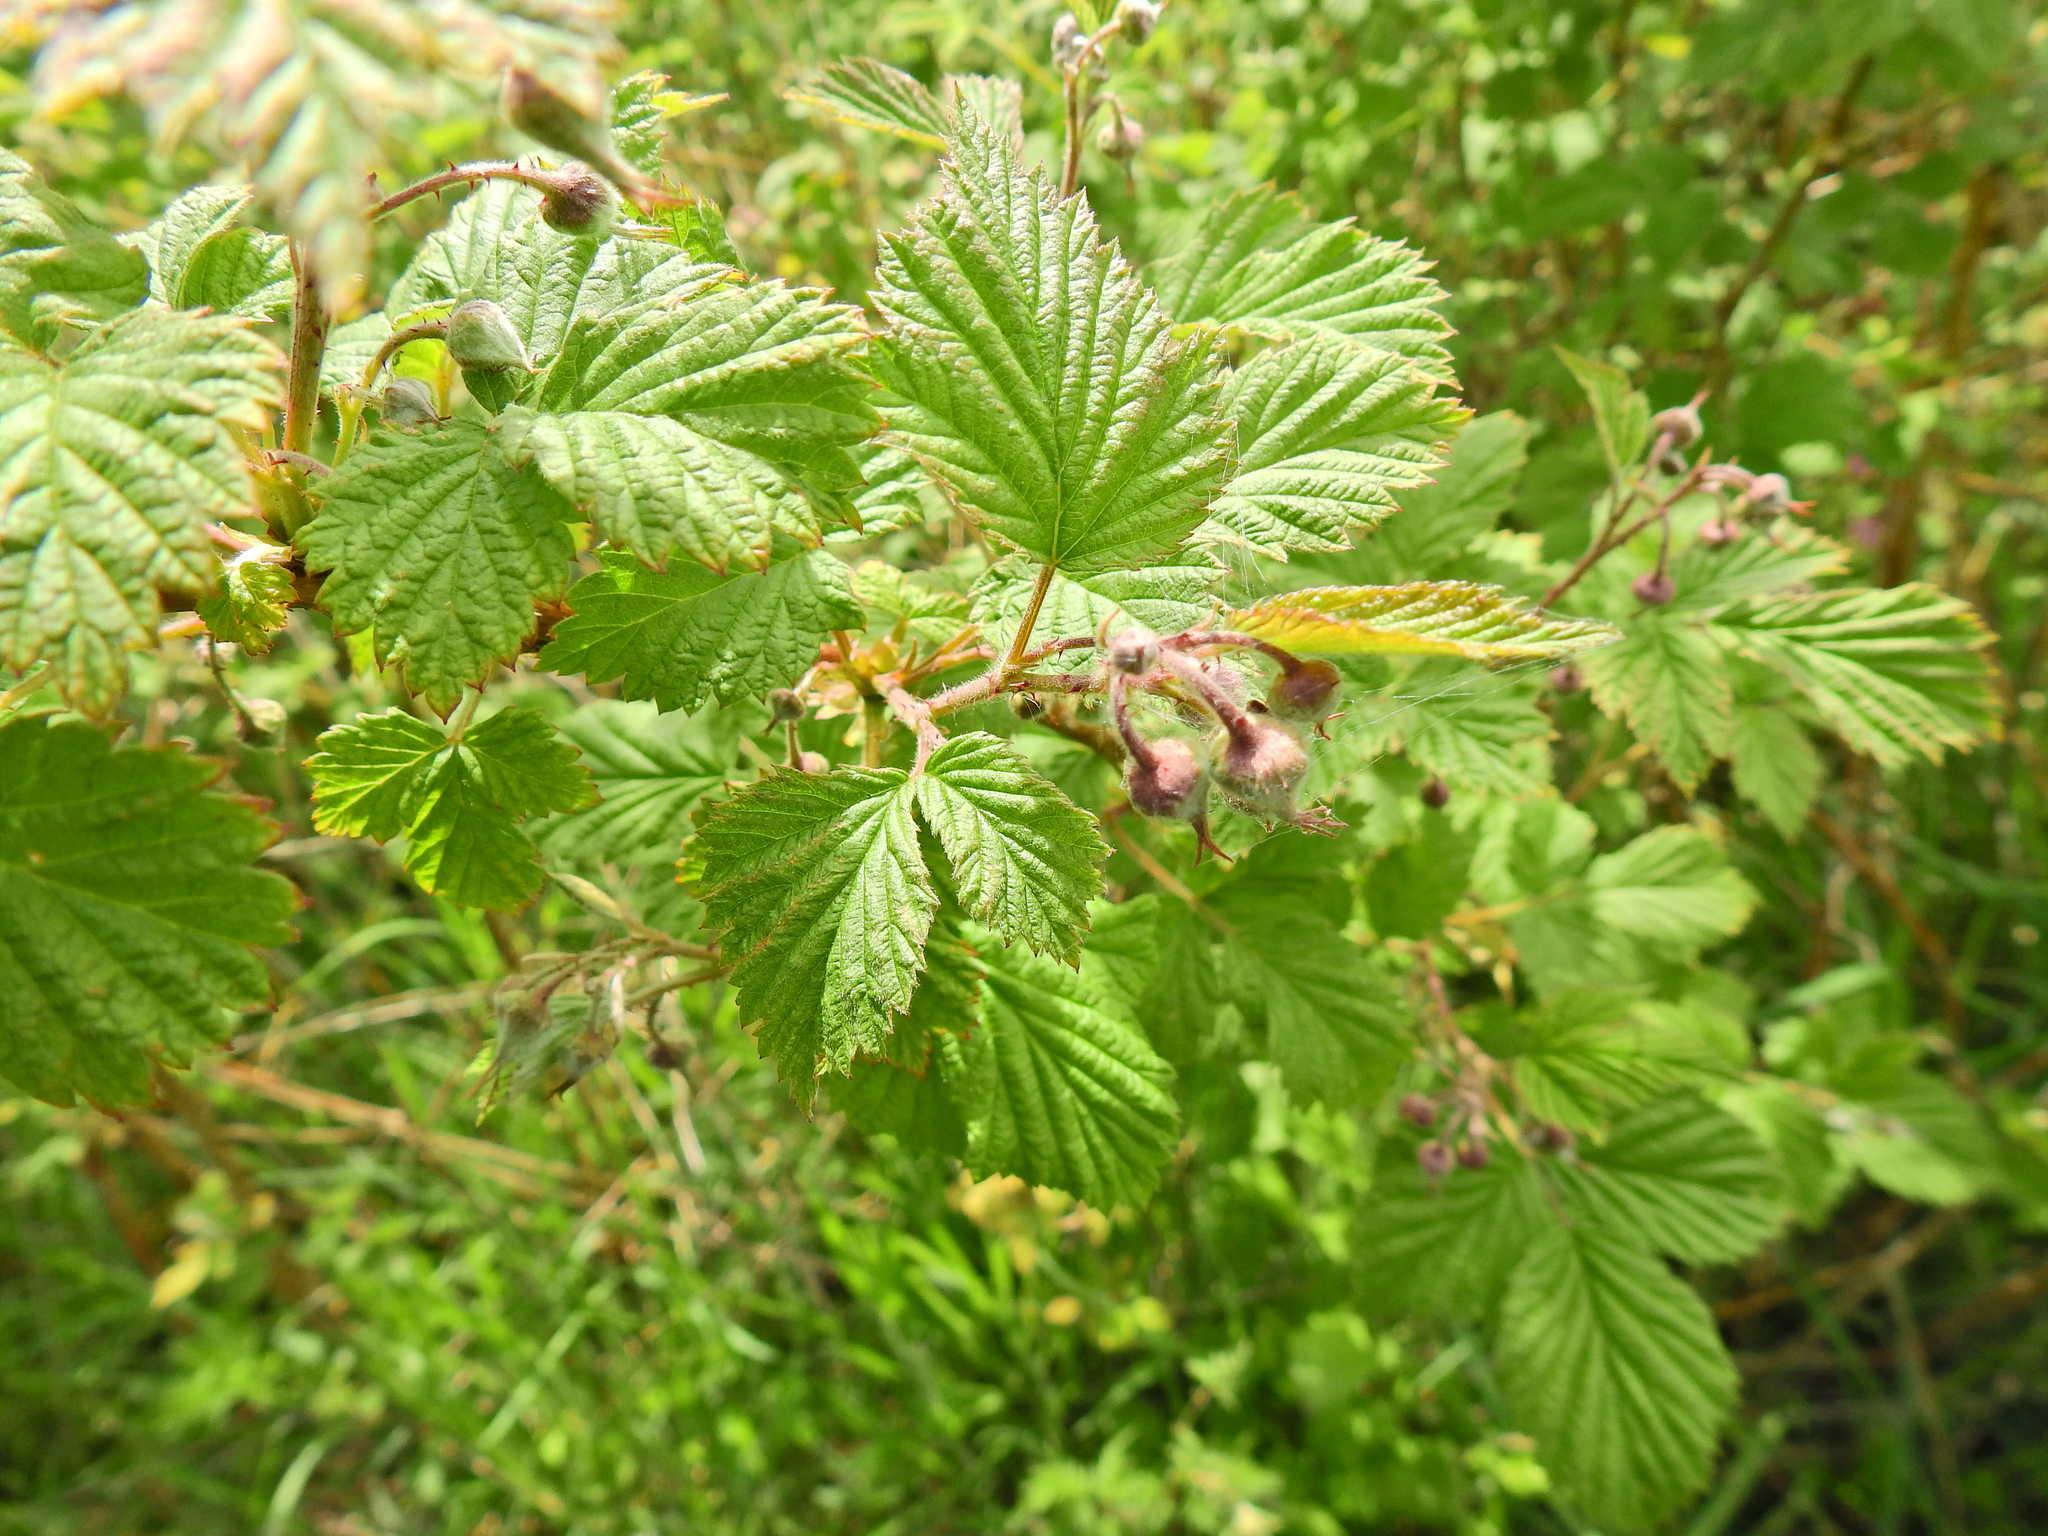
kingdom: Plantae
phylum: Tracheophyta
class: Magnoliopsida
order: Rosales
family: Rosaceae
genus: Rubus
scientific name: Rubus idaeus
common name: Raspberry
